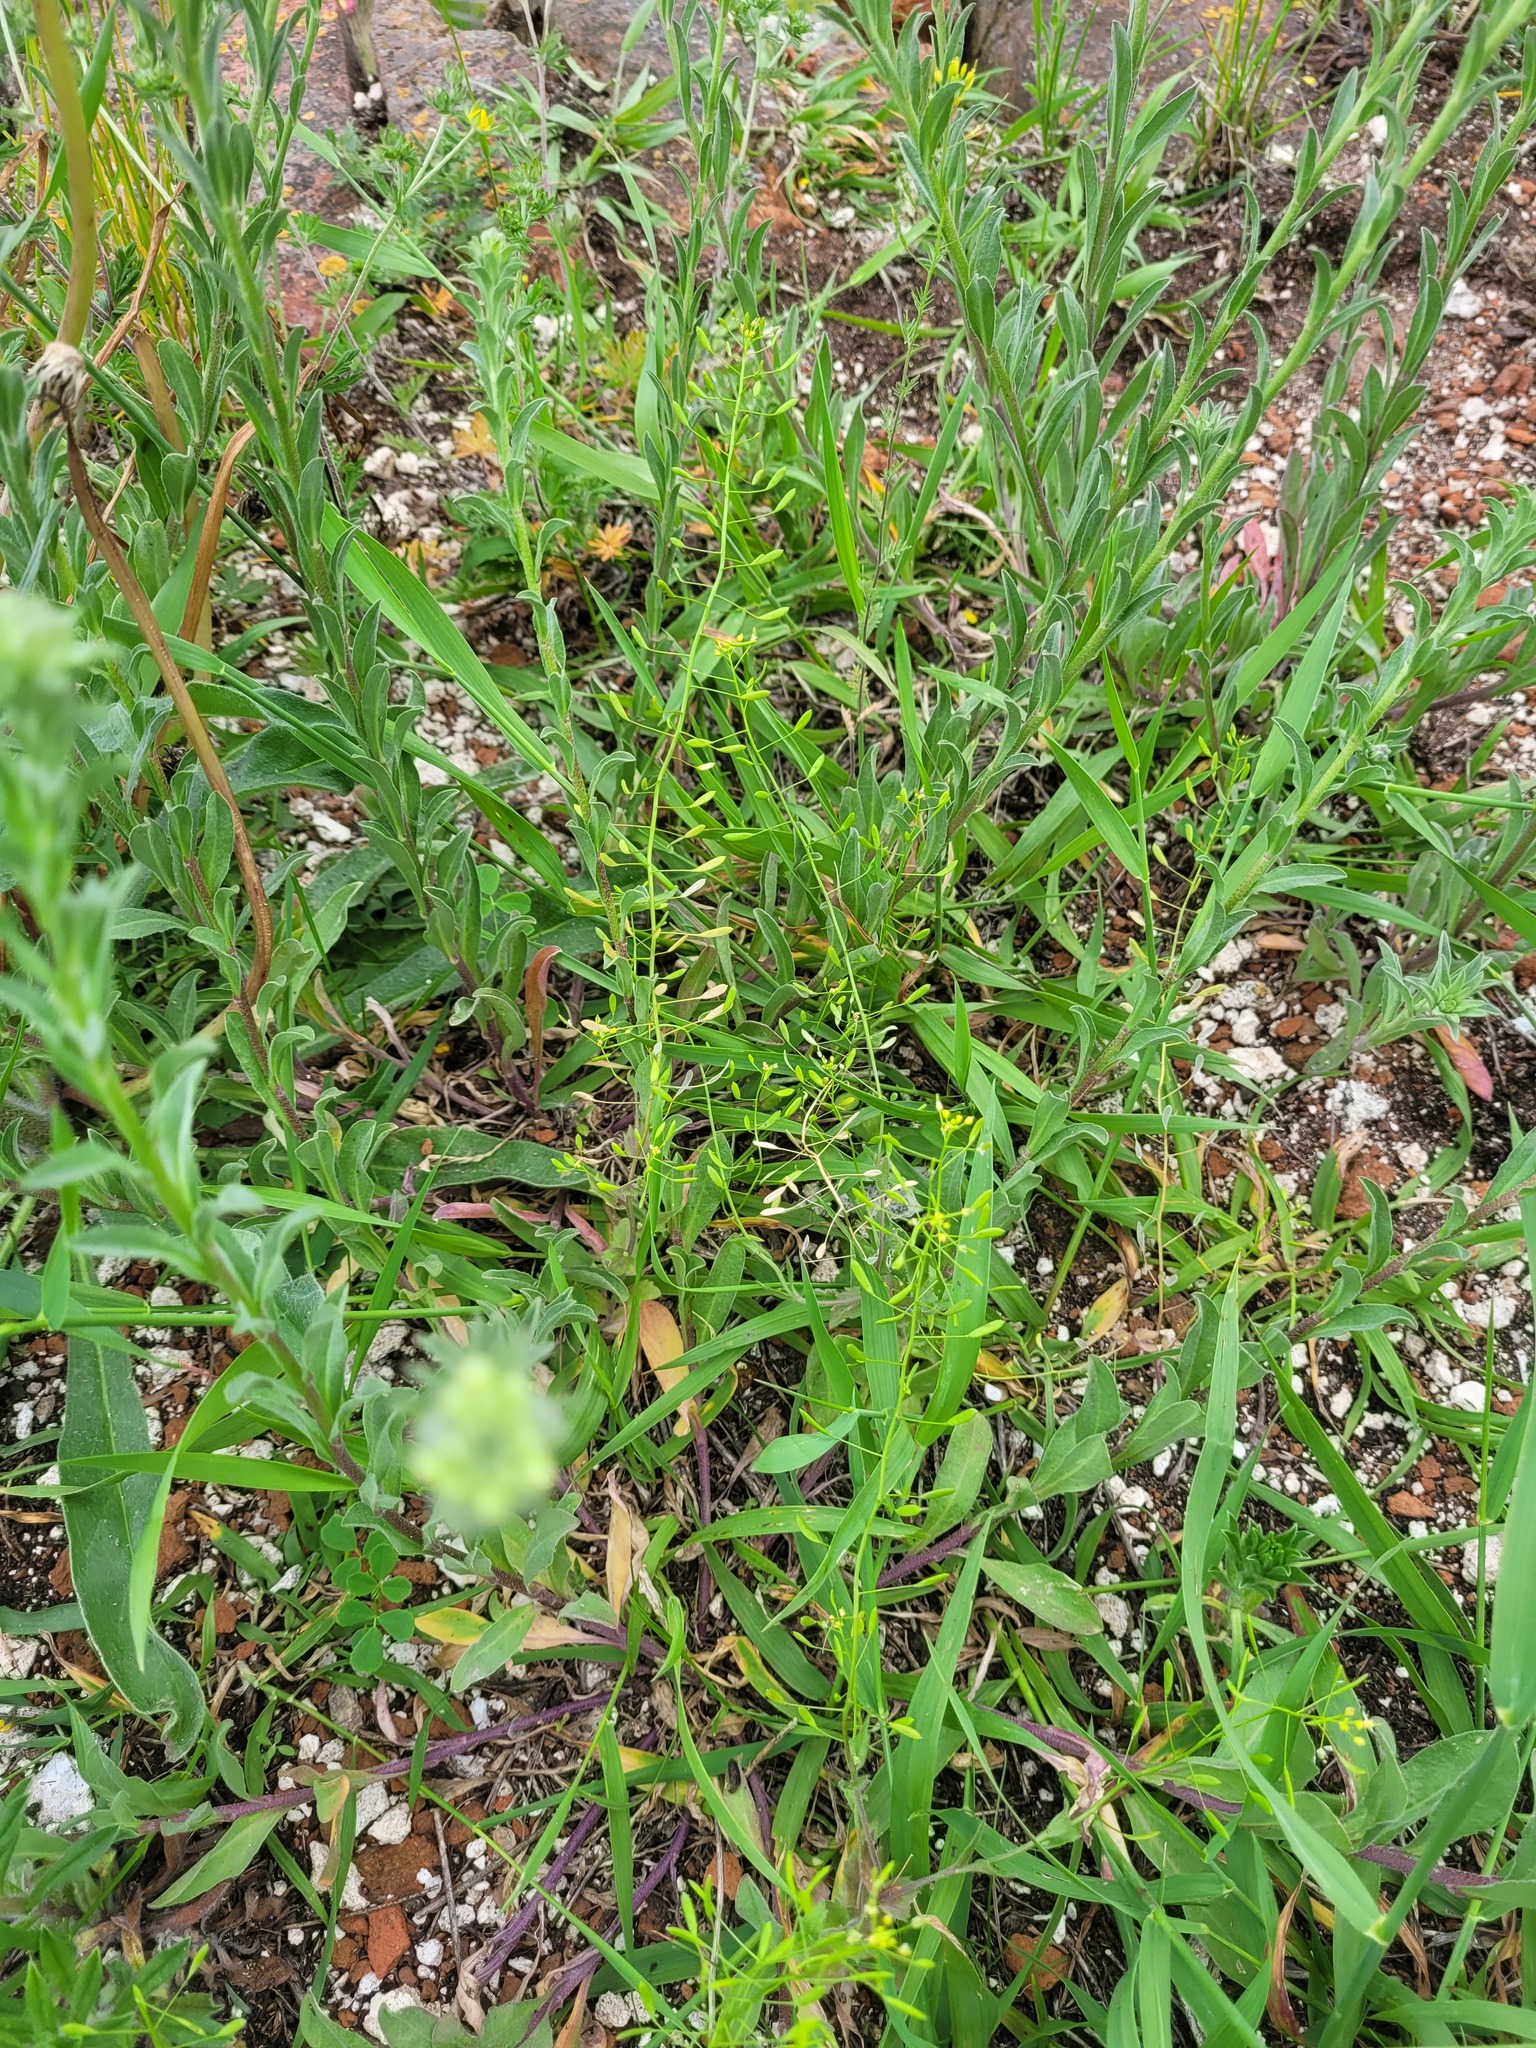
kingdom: Plantae
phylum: Tracheophyta
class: Magnoliopsida
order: Brassicales
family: Brassicaceae
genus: Draba
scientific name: Draba nemorosa
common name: Wood whitlow-grass
